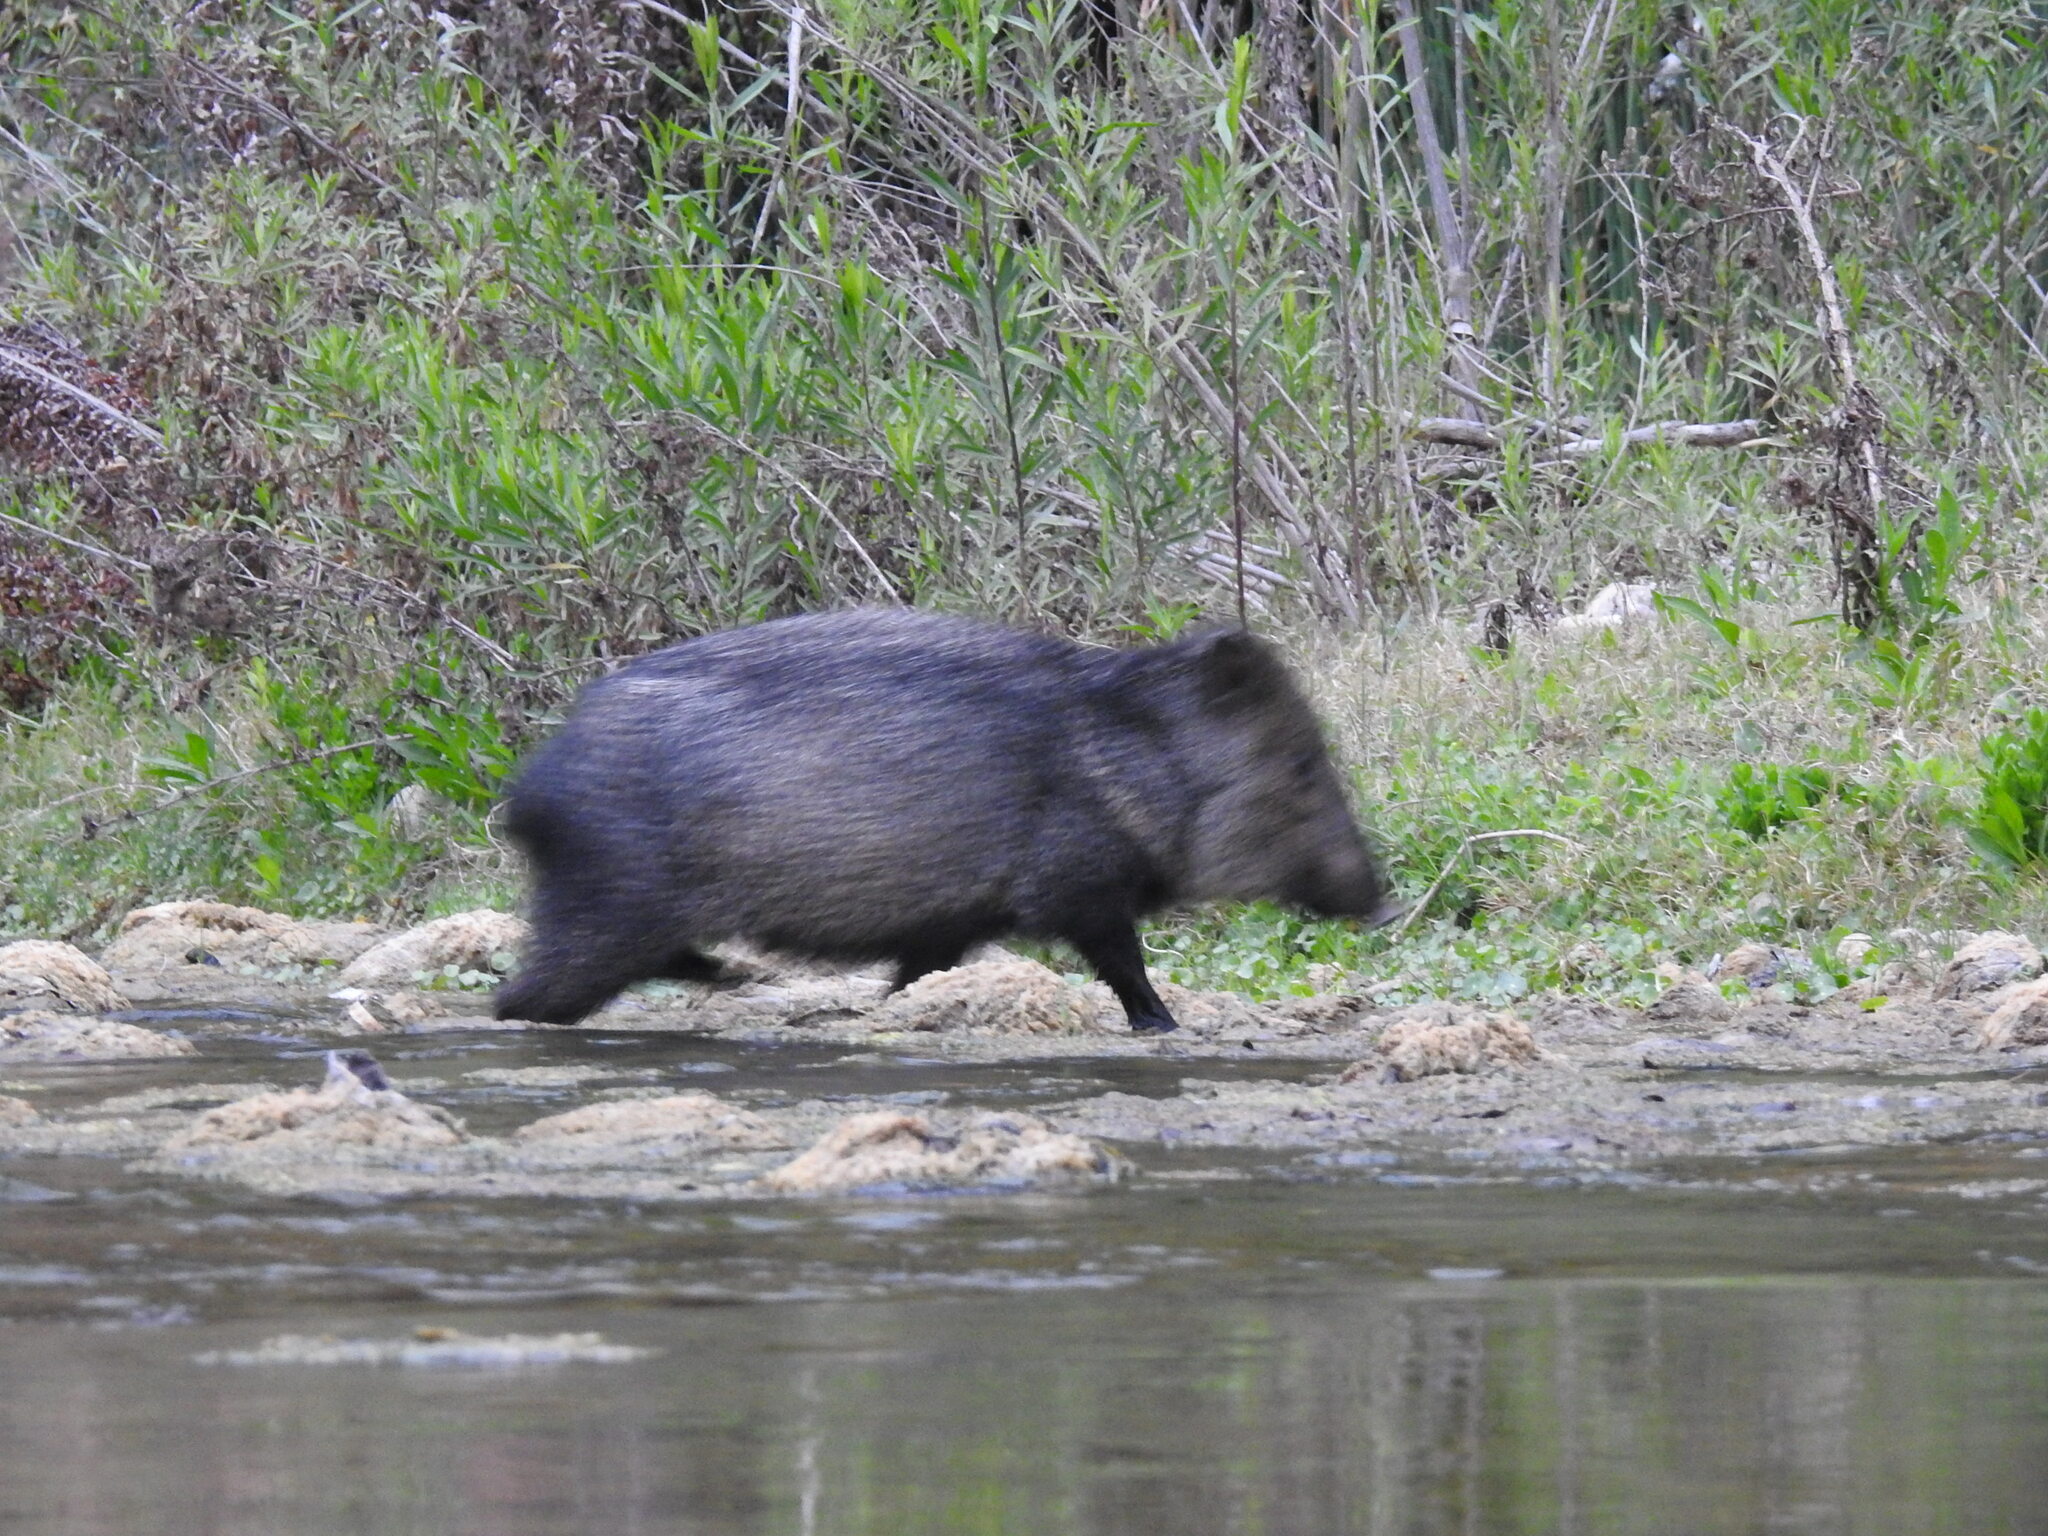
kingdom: Animalia
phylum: Chordata
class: Mammalia
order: Artiodactyla
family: Tayassuidae
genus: Pecari
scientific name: Pecari tajacu
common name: Collared peccary
